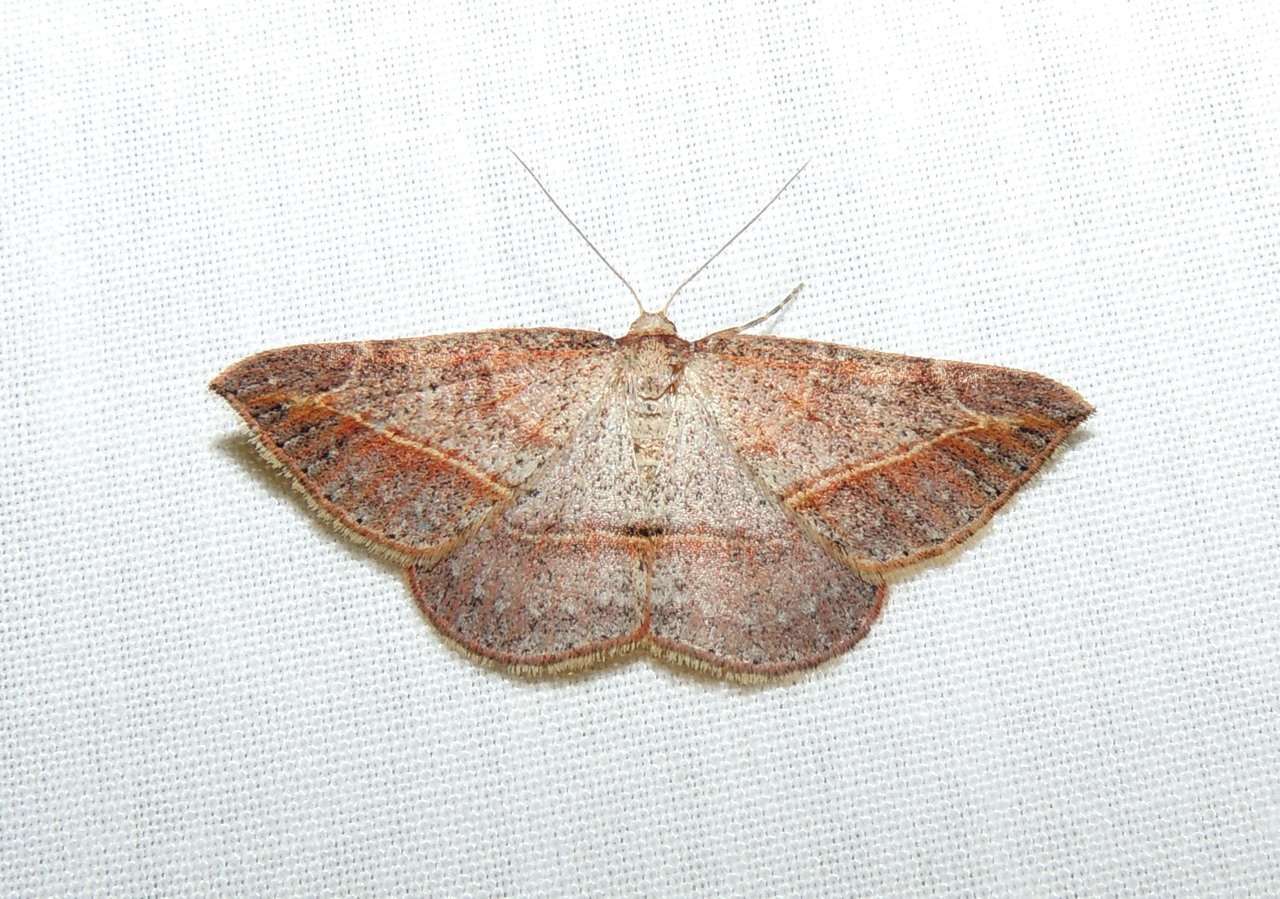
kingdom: Animalia
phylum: Arthropoda
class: Insecta
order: Lepidoptera
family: Geometridae
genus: Zeuctophlebia
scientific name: Zeuctophlebia squalidata
